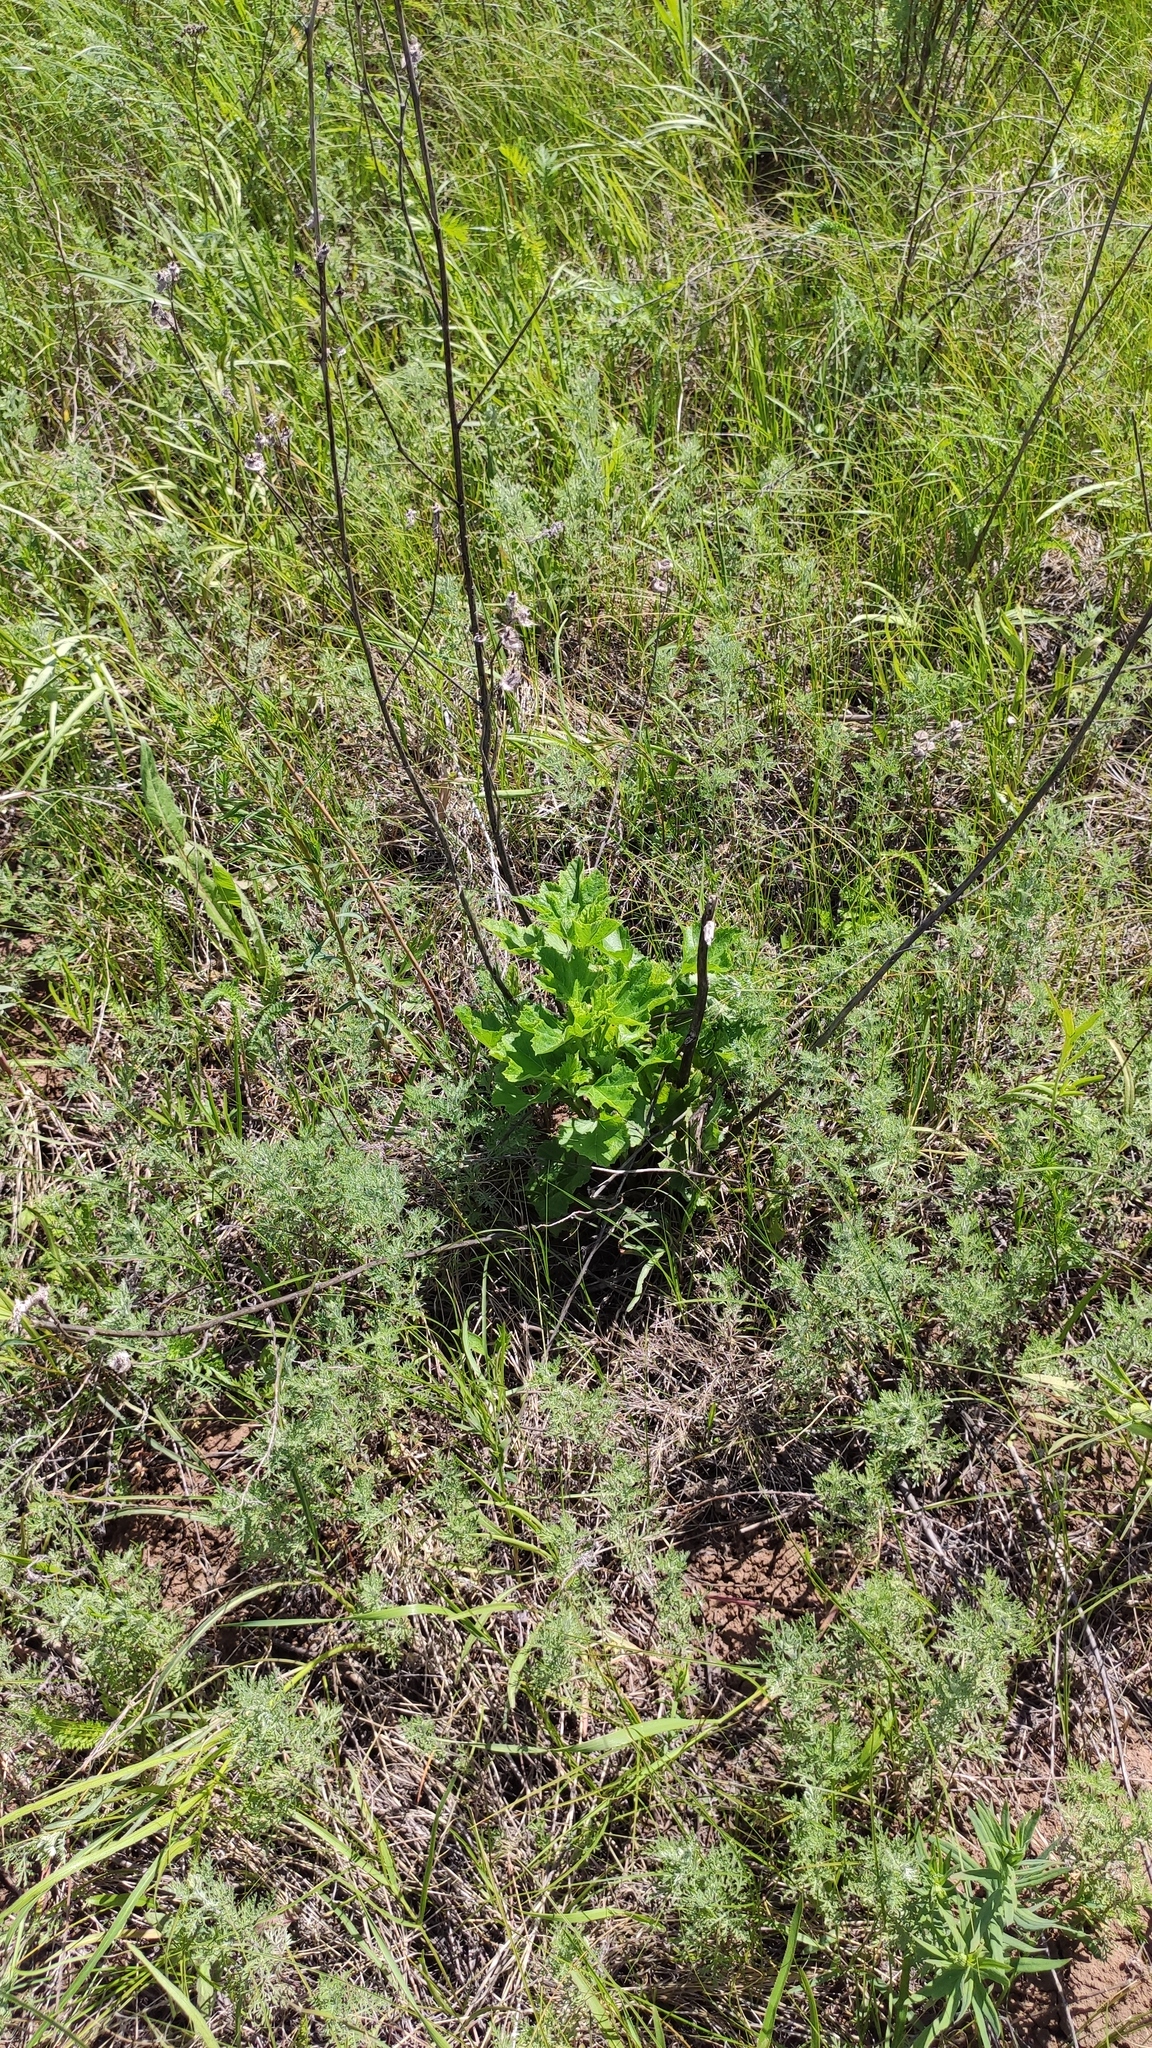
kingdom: Plantae
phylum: Tracheophyta
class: Magnoliopsida
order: Malvales
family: Malvaceae
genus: Malva
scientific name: Malva thuringiaca
